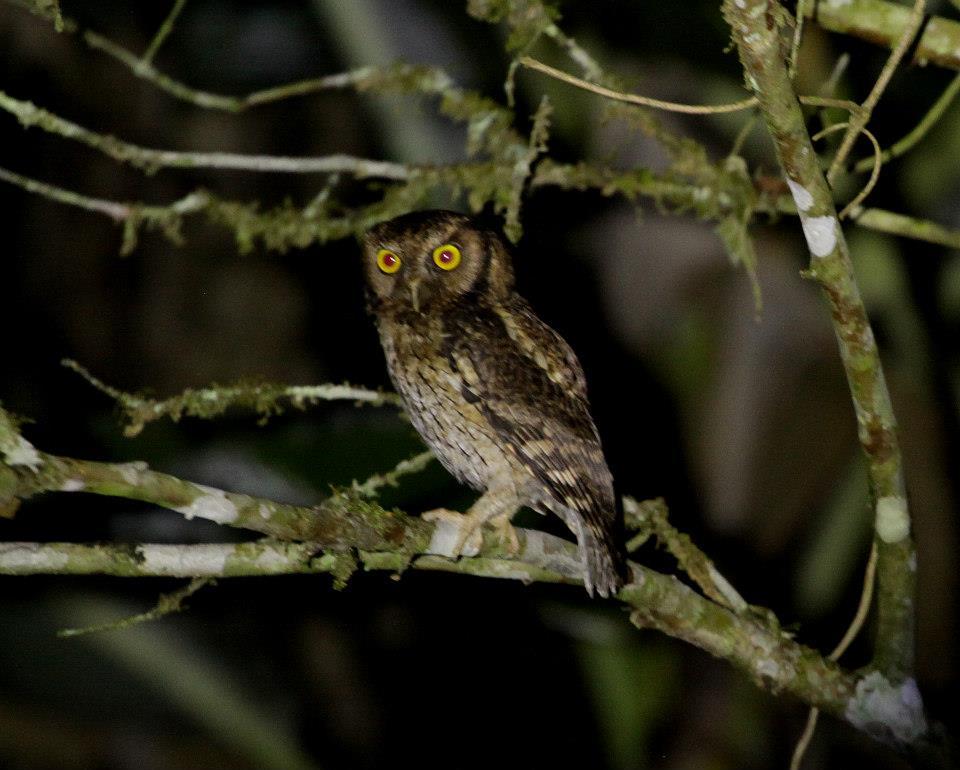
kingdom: Animalia
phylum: Chordata
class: Aves
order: Strigiformes
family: Strigidae
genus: Megascops
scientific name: Megascops atricapilla
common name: Black-capped screech owl
